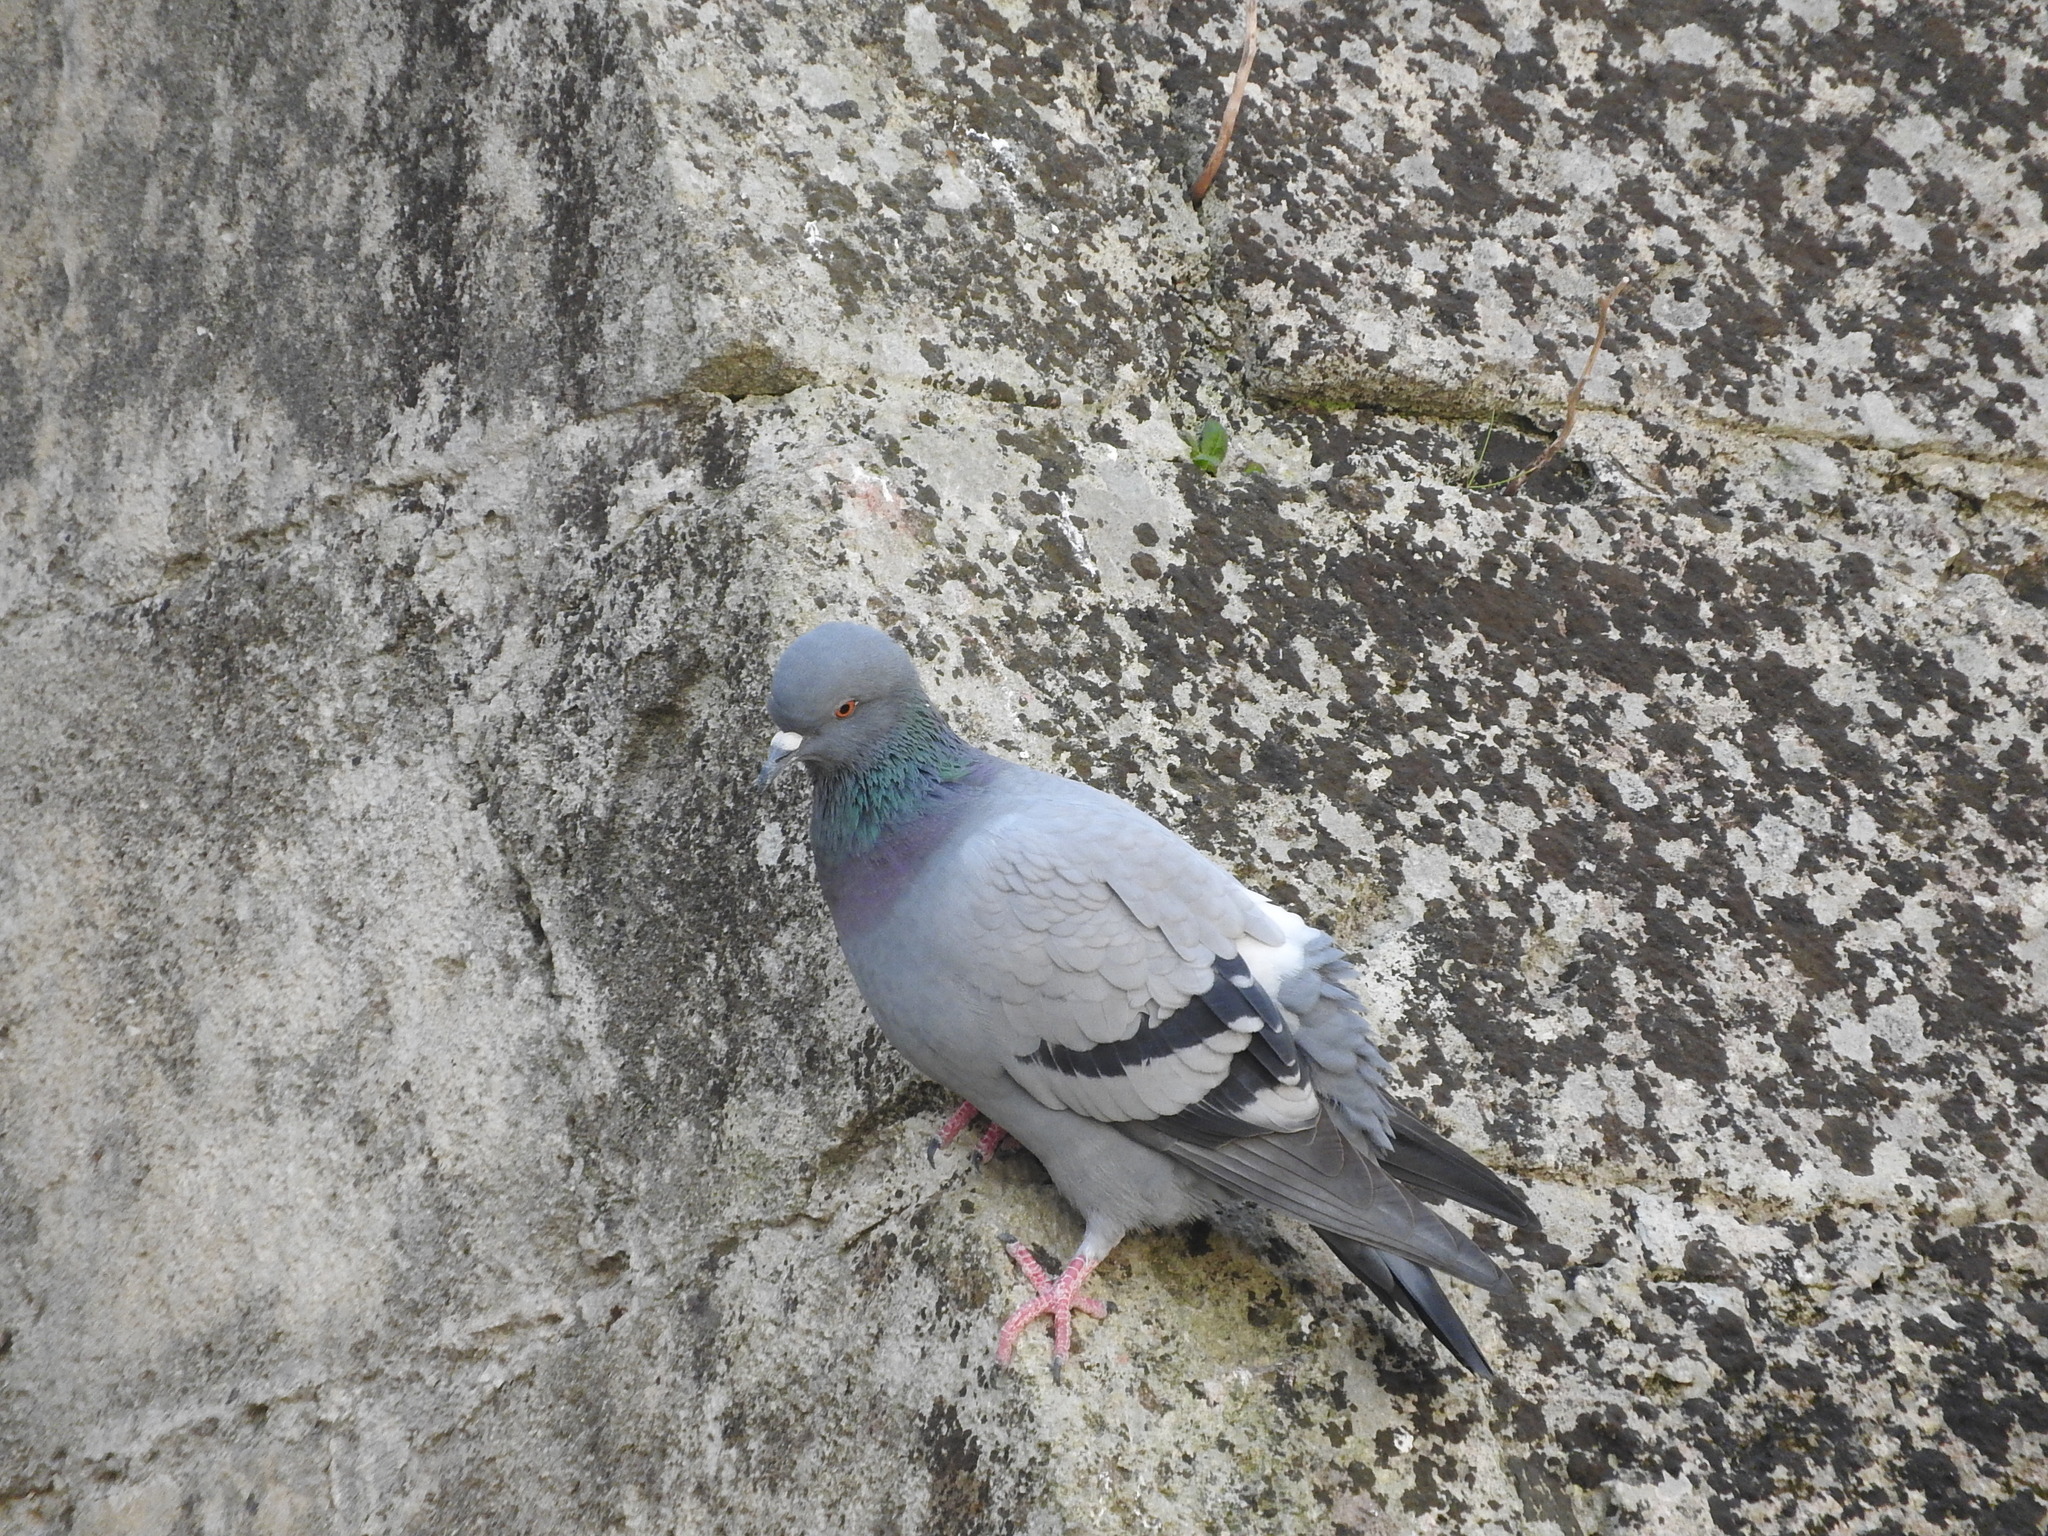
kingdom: Animalia
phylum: Chordata
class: Aves
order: Columbiformes
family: Columbidae
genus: Columba
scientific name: Columba livia
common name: Rock pigeon
